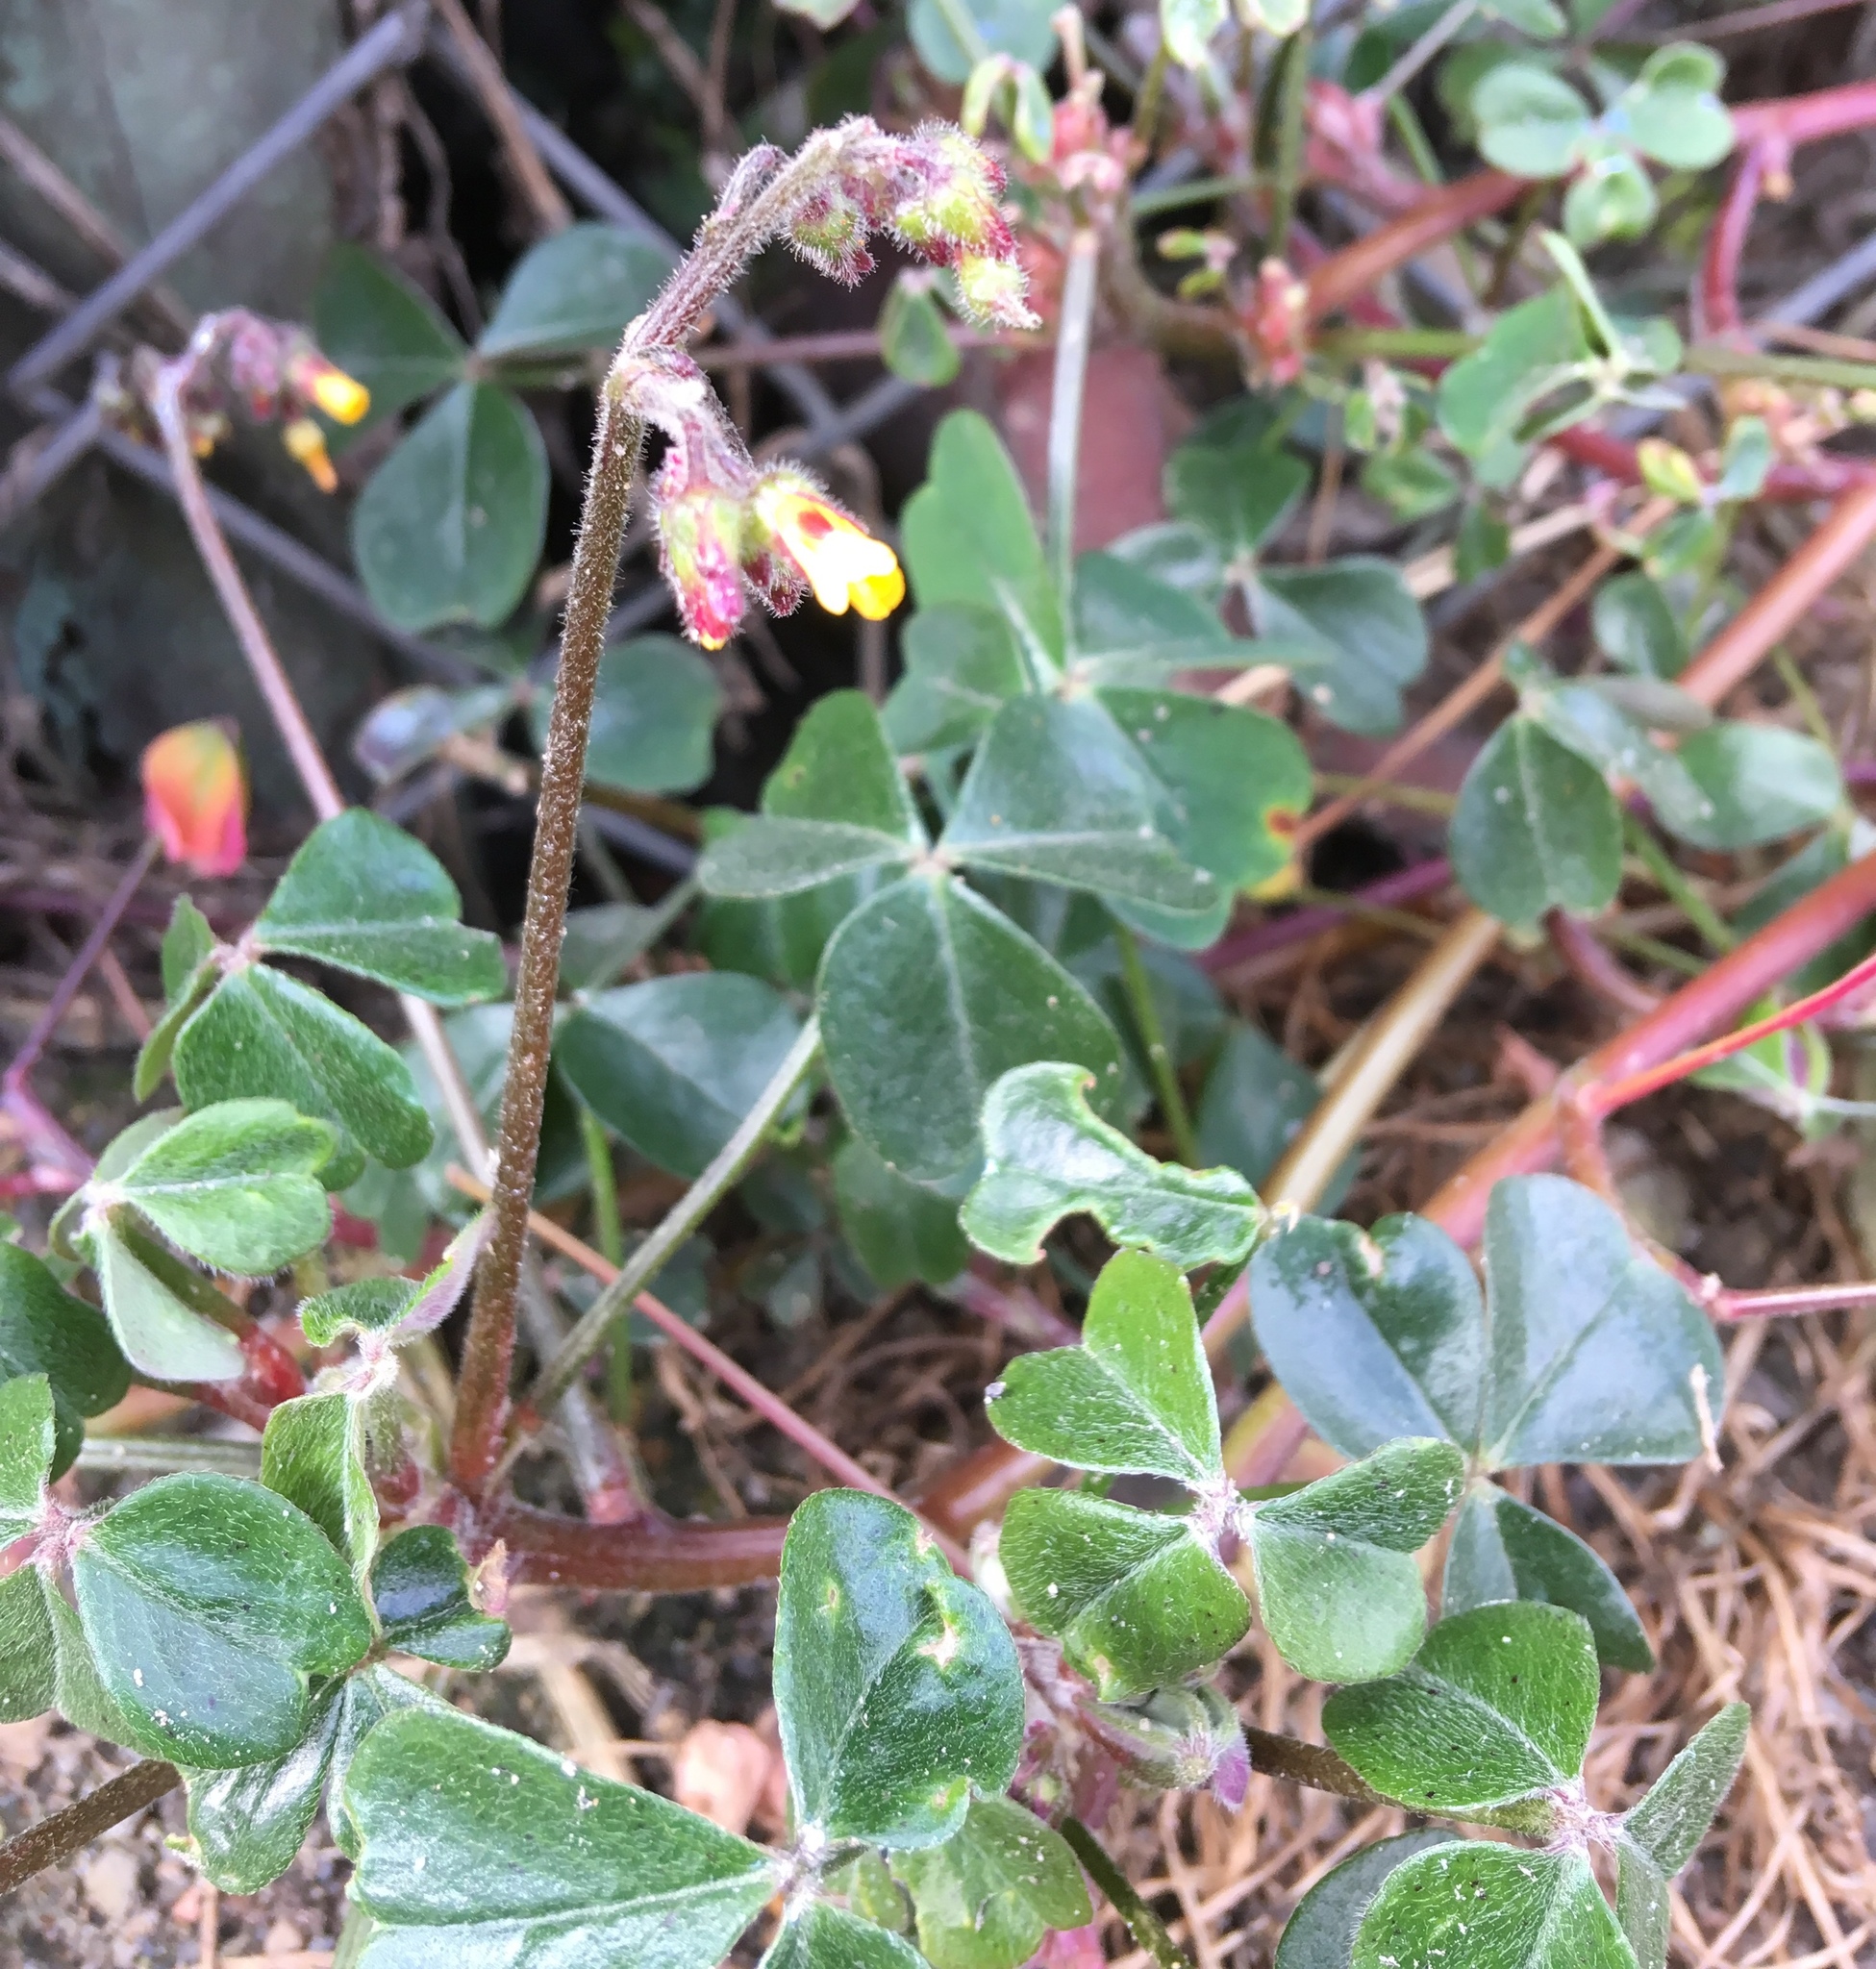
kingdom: Plantae
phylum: Tracheophyta
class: Magnoliopsida
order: Oxalidales
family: Oxalidaceae
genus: Oxalis
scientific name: Oxalis spiralis
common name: Spiral sorrel
